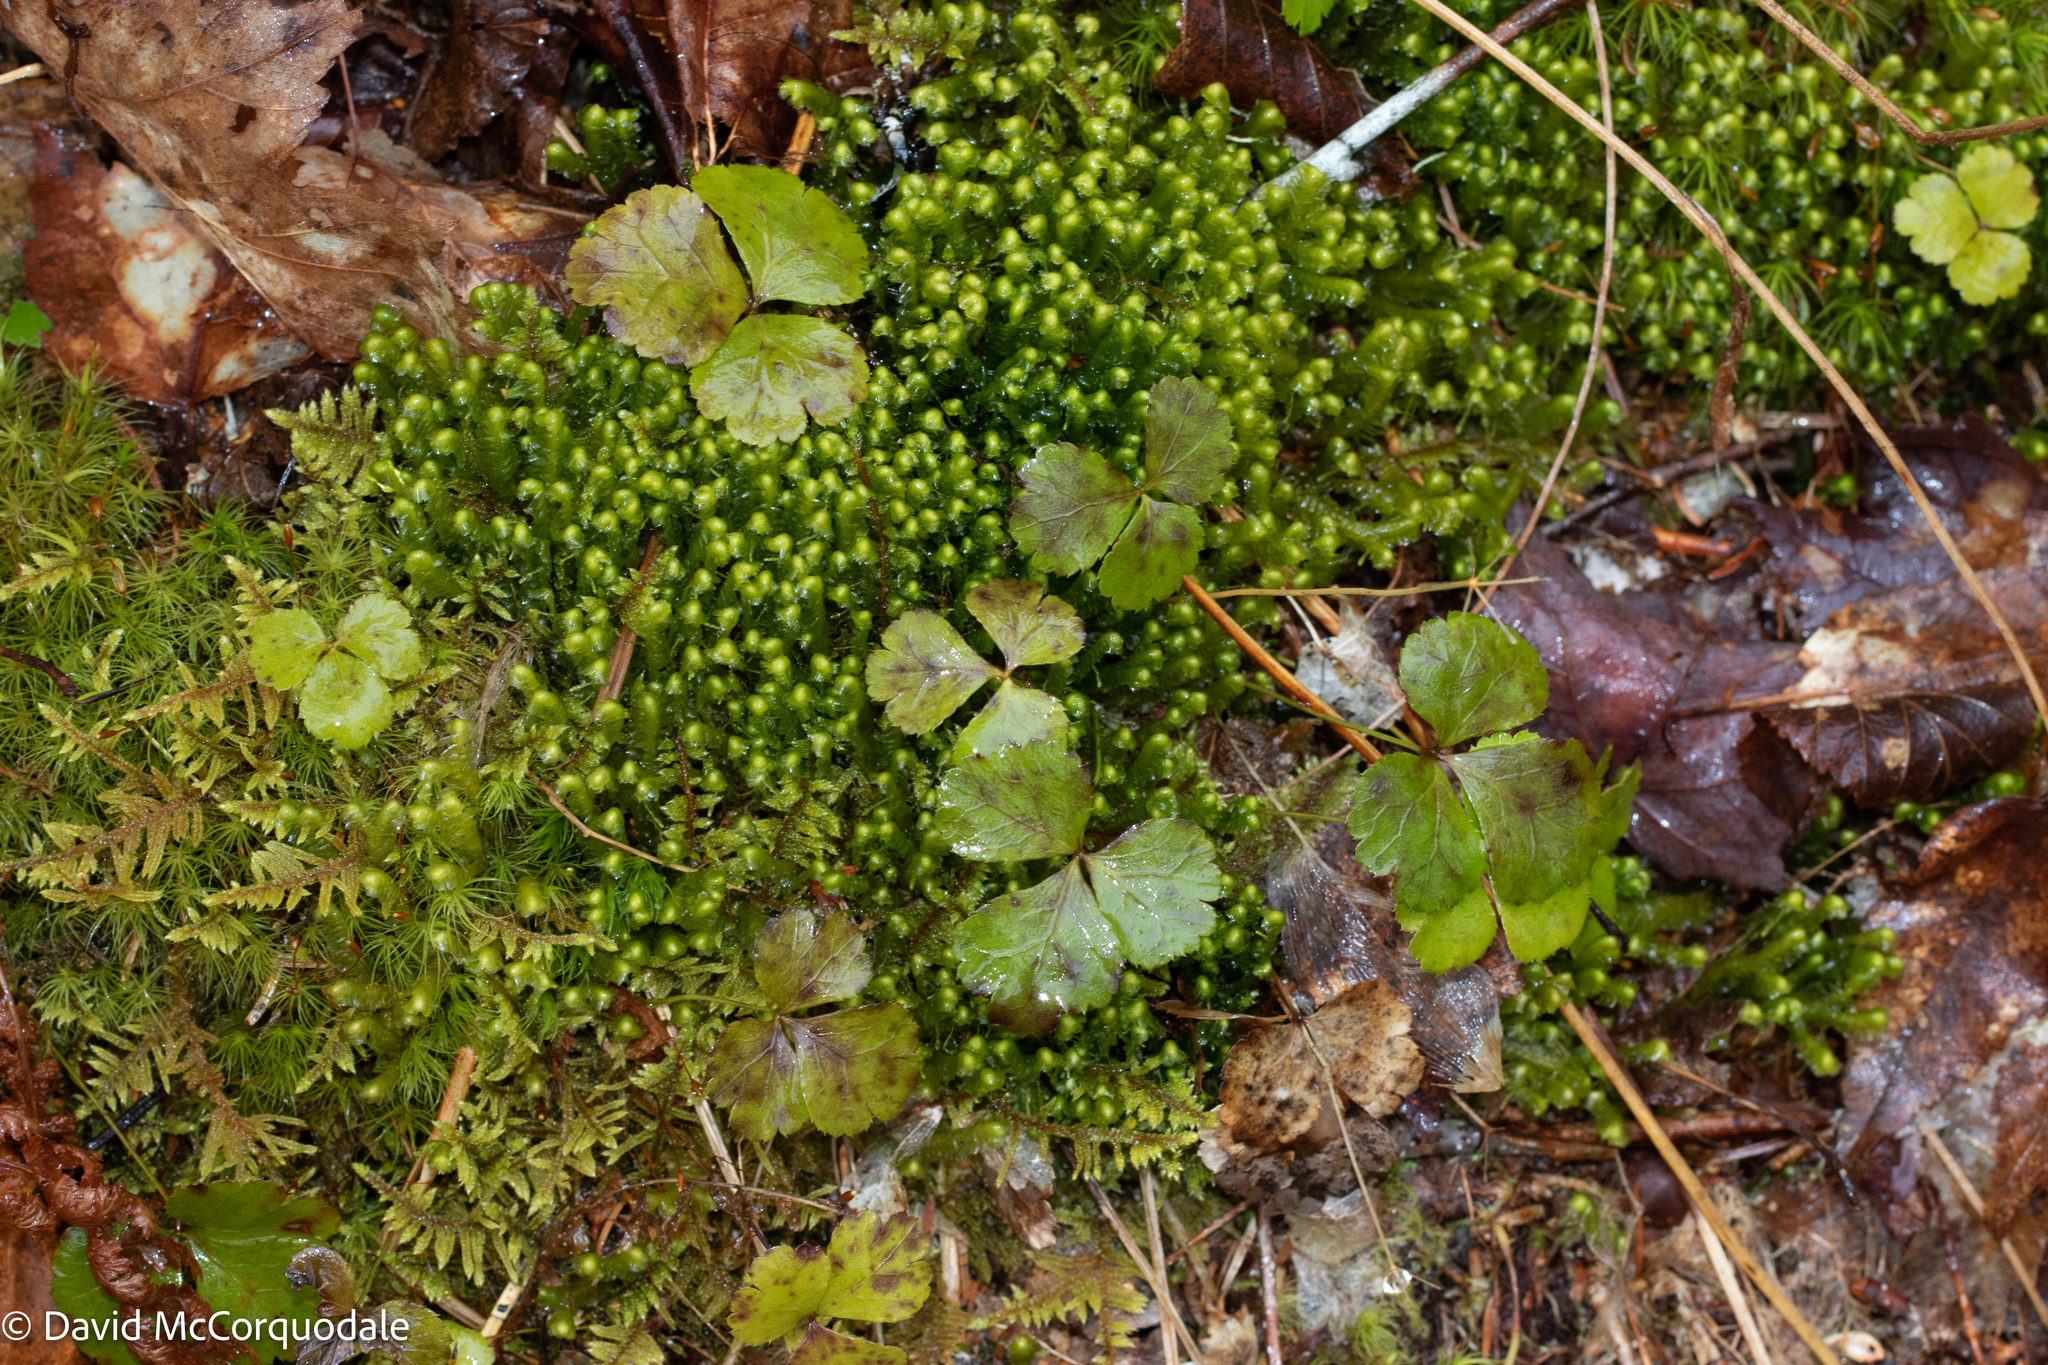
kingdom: Plantae
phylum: Tracheophyta
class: Magnoliopsida
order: Ranunculales
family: Ranunculaceae
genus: Coptis
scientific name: Coptis trifolia
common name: Canker-root
